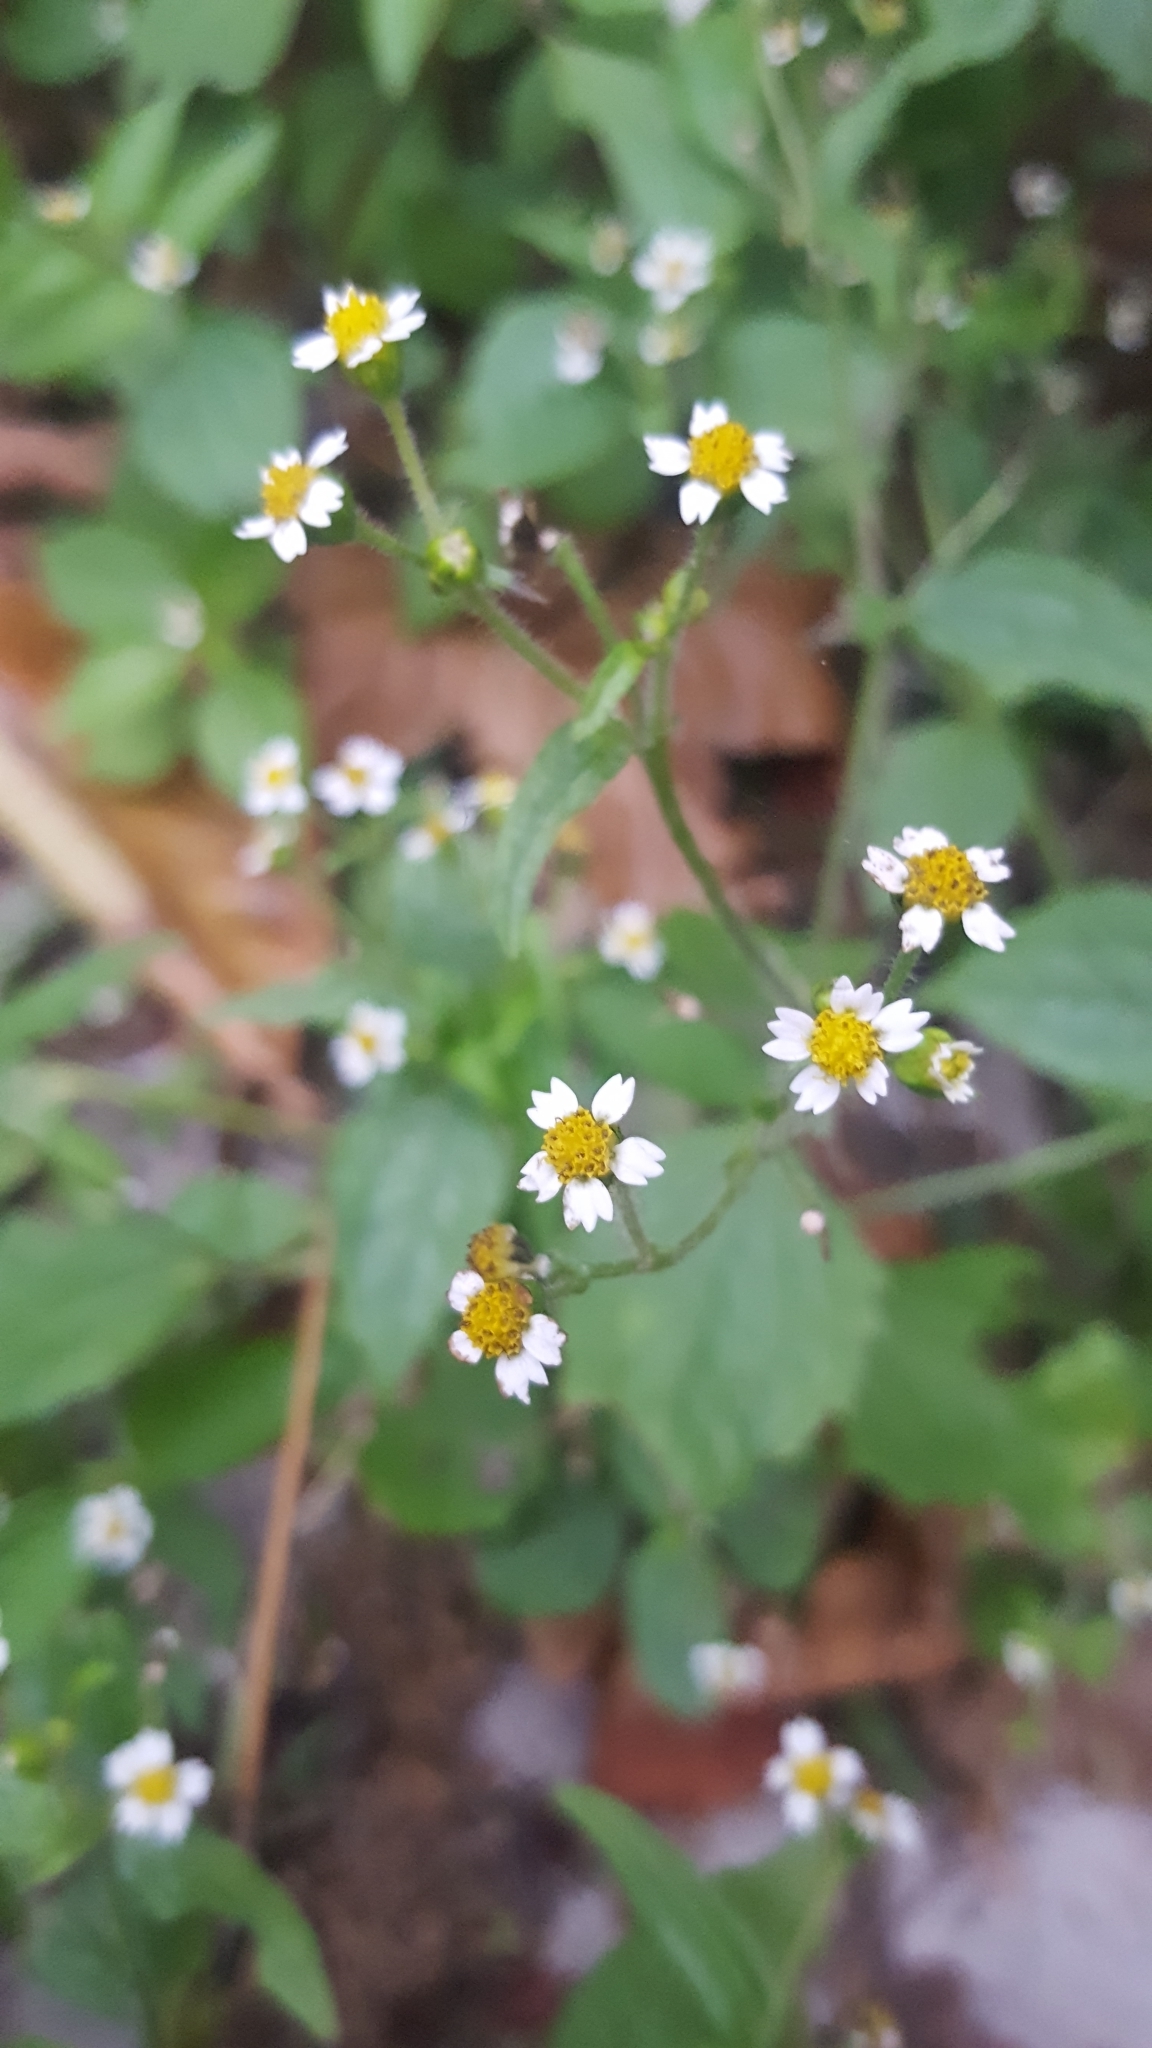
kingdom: Plantae
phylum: Tracheophyta
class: Magnoliopsida
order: Asterales
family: Asteraceae
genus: Galinsoga
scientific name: Galinsoga quadriradiata
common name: Shaggy soldier
